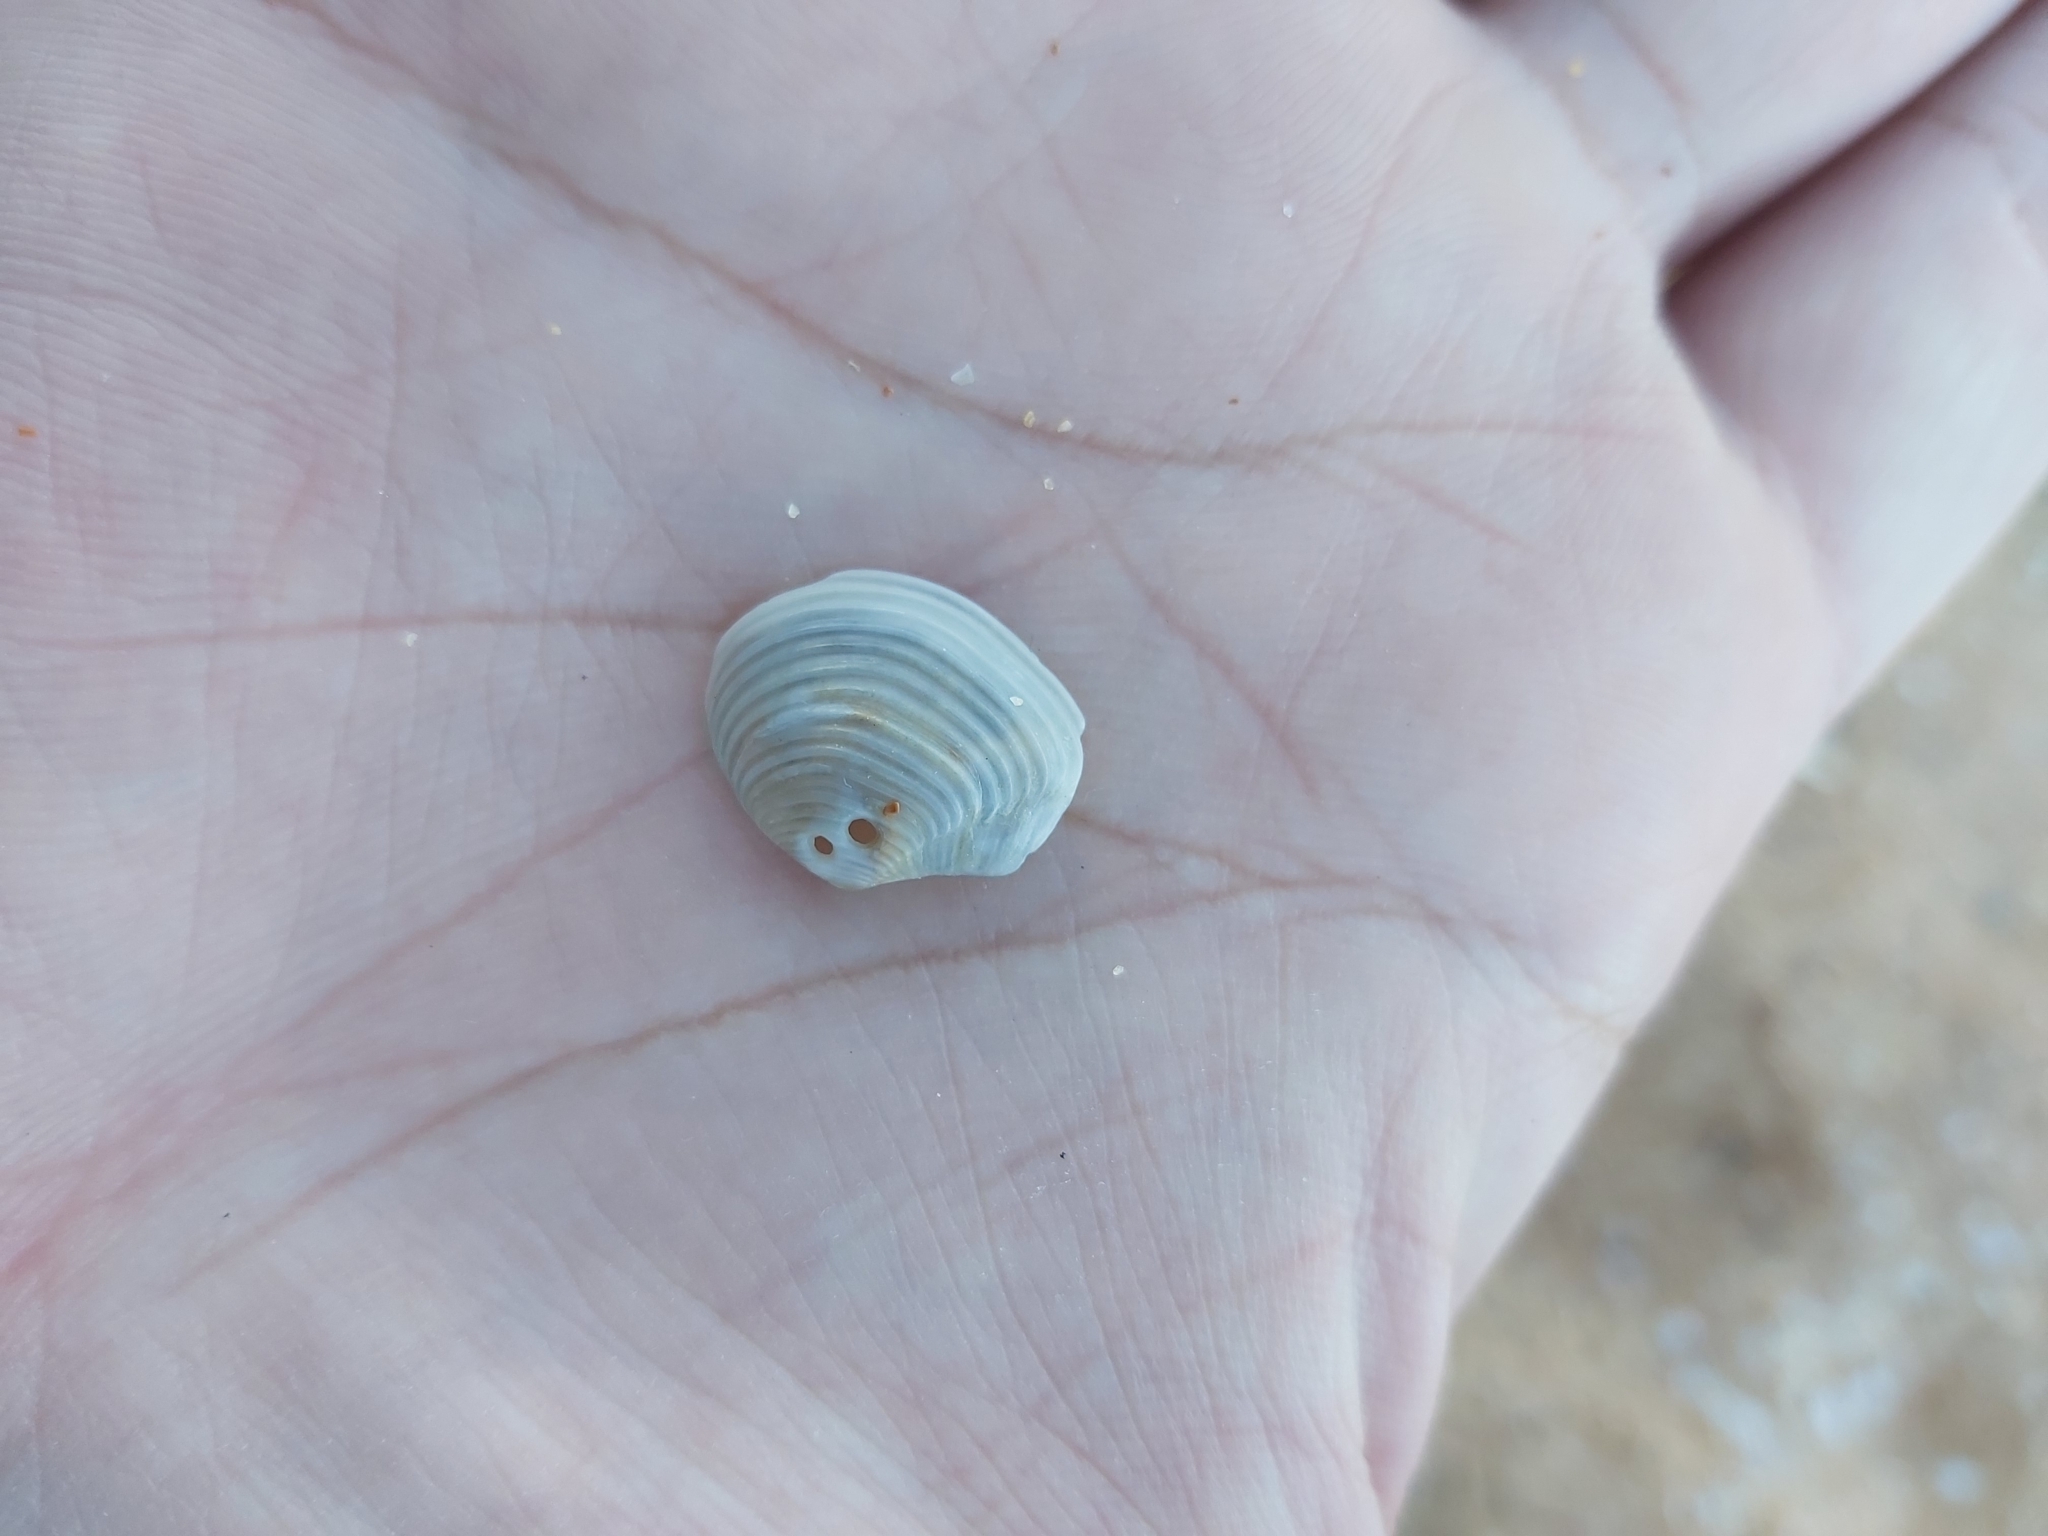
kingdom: Animalia
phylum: Mollusca
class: Bivalvia
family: Myochamidae
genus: Myadora
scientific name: Myadora complexa
